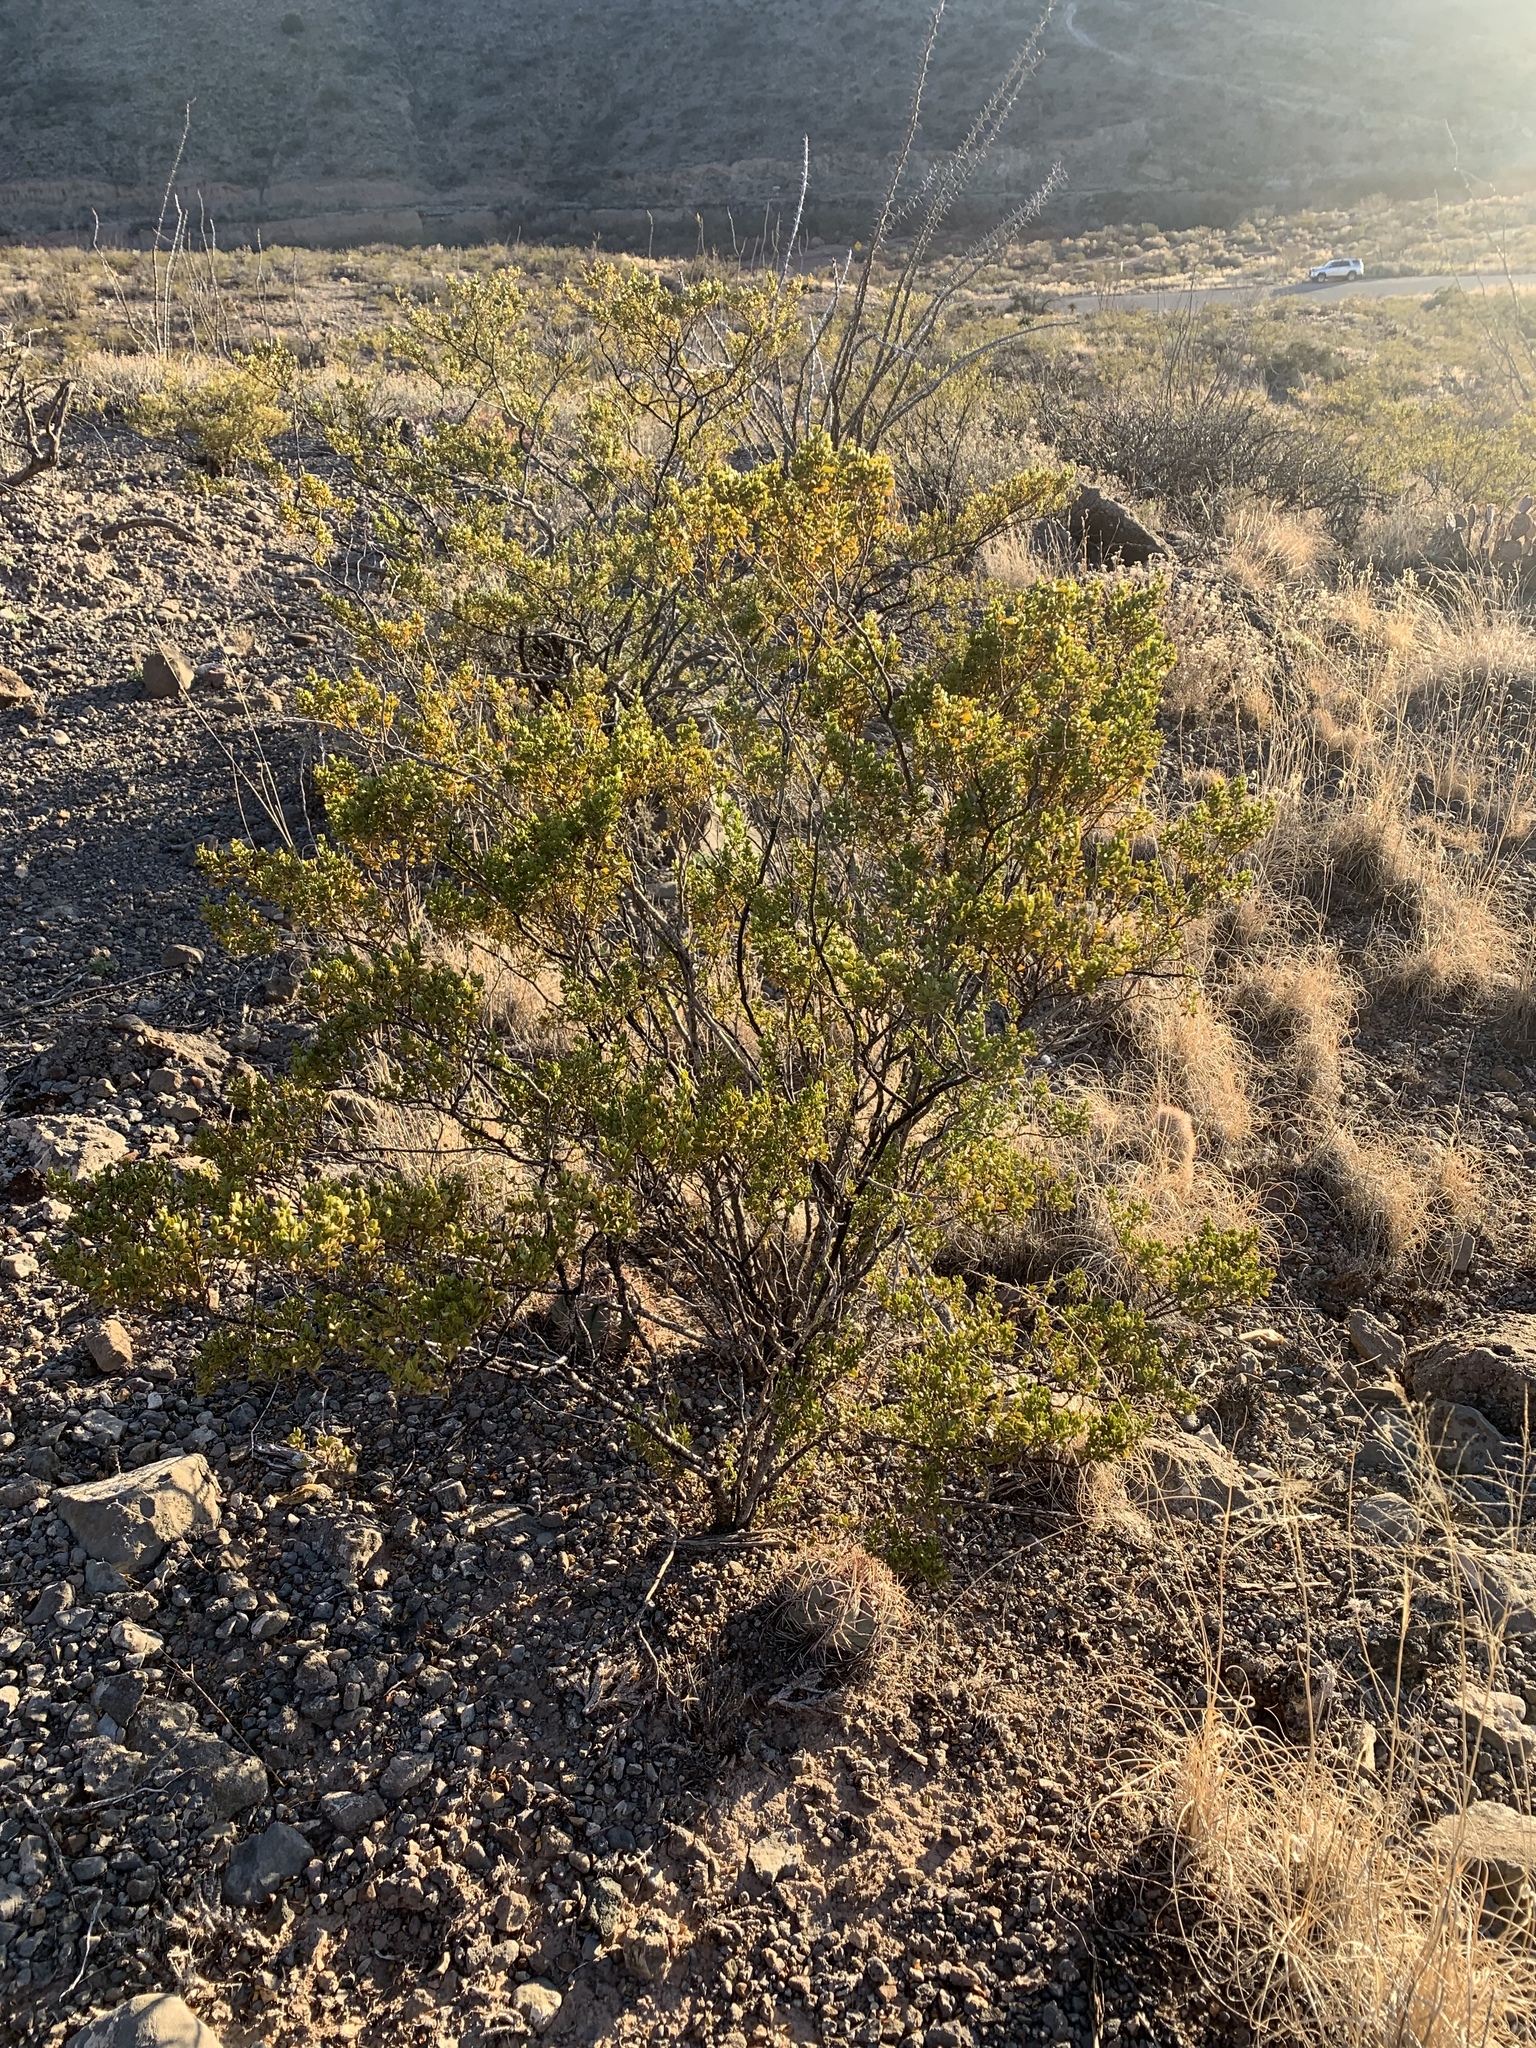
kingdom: Plantae
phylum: Tracheophyta
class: Magnoliopsida
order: Zygophyllales
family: Zygophyllaceae
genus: Larrea
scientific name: Larrea tridentata
